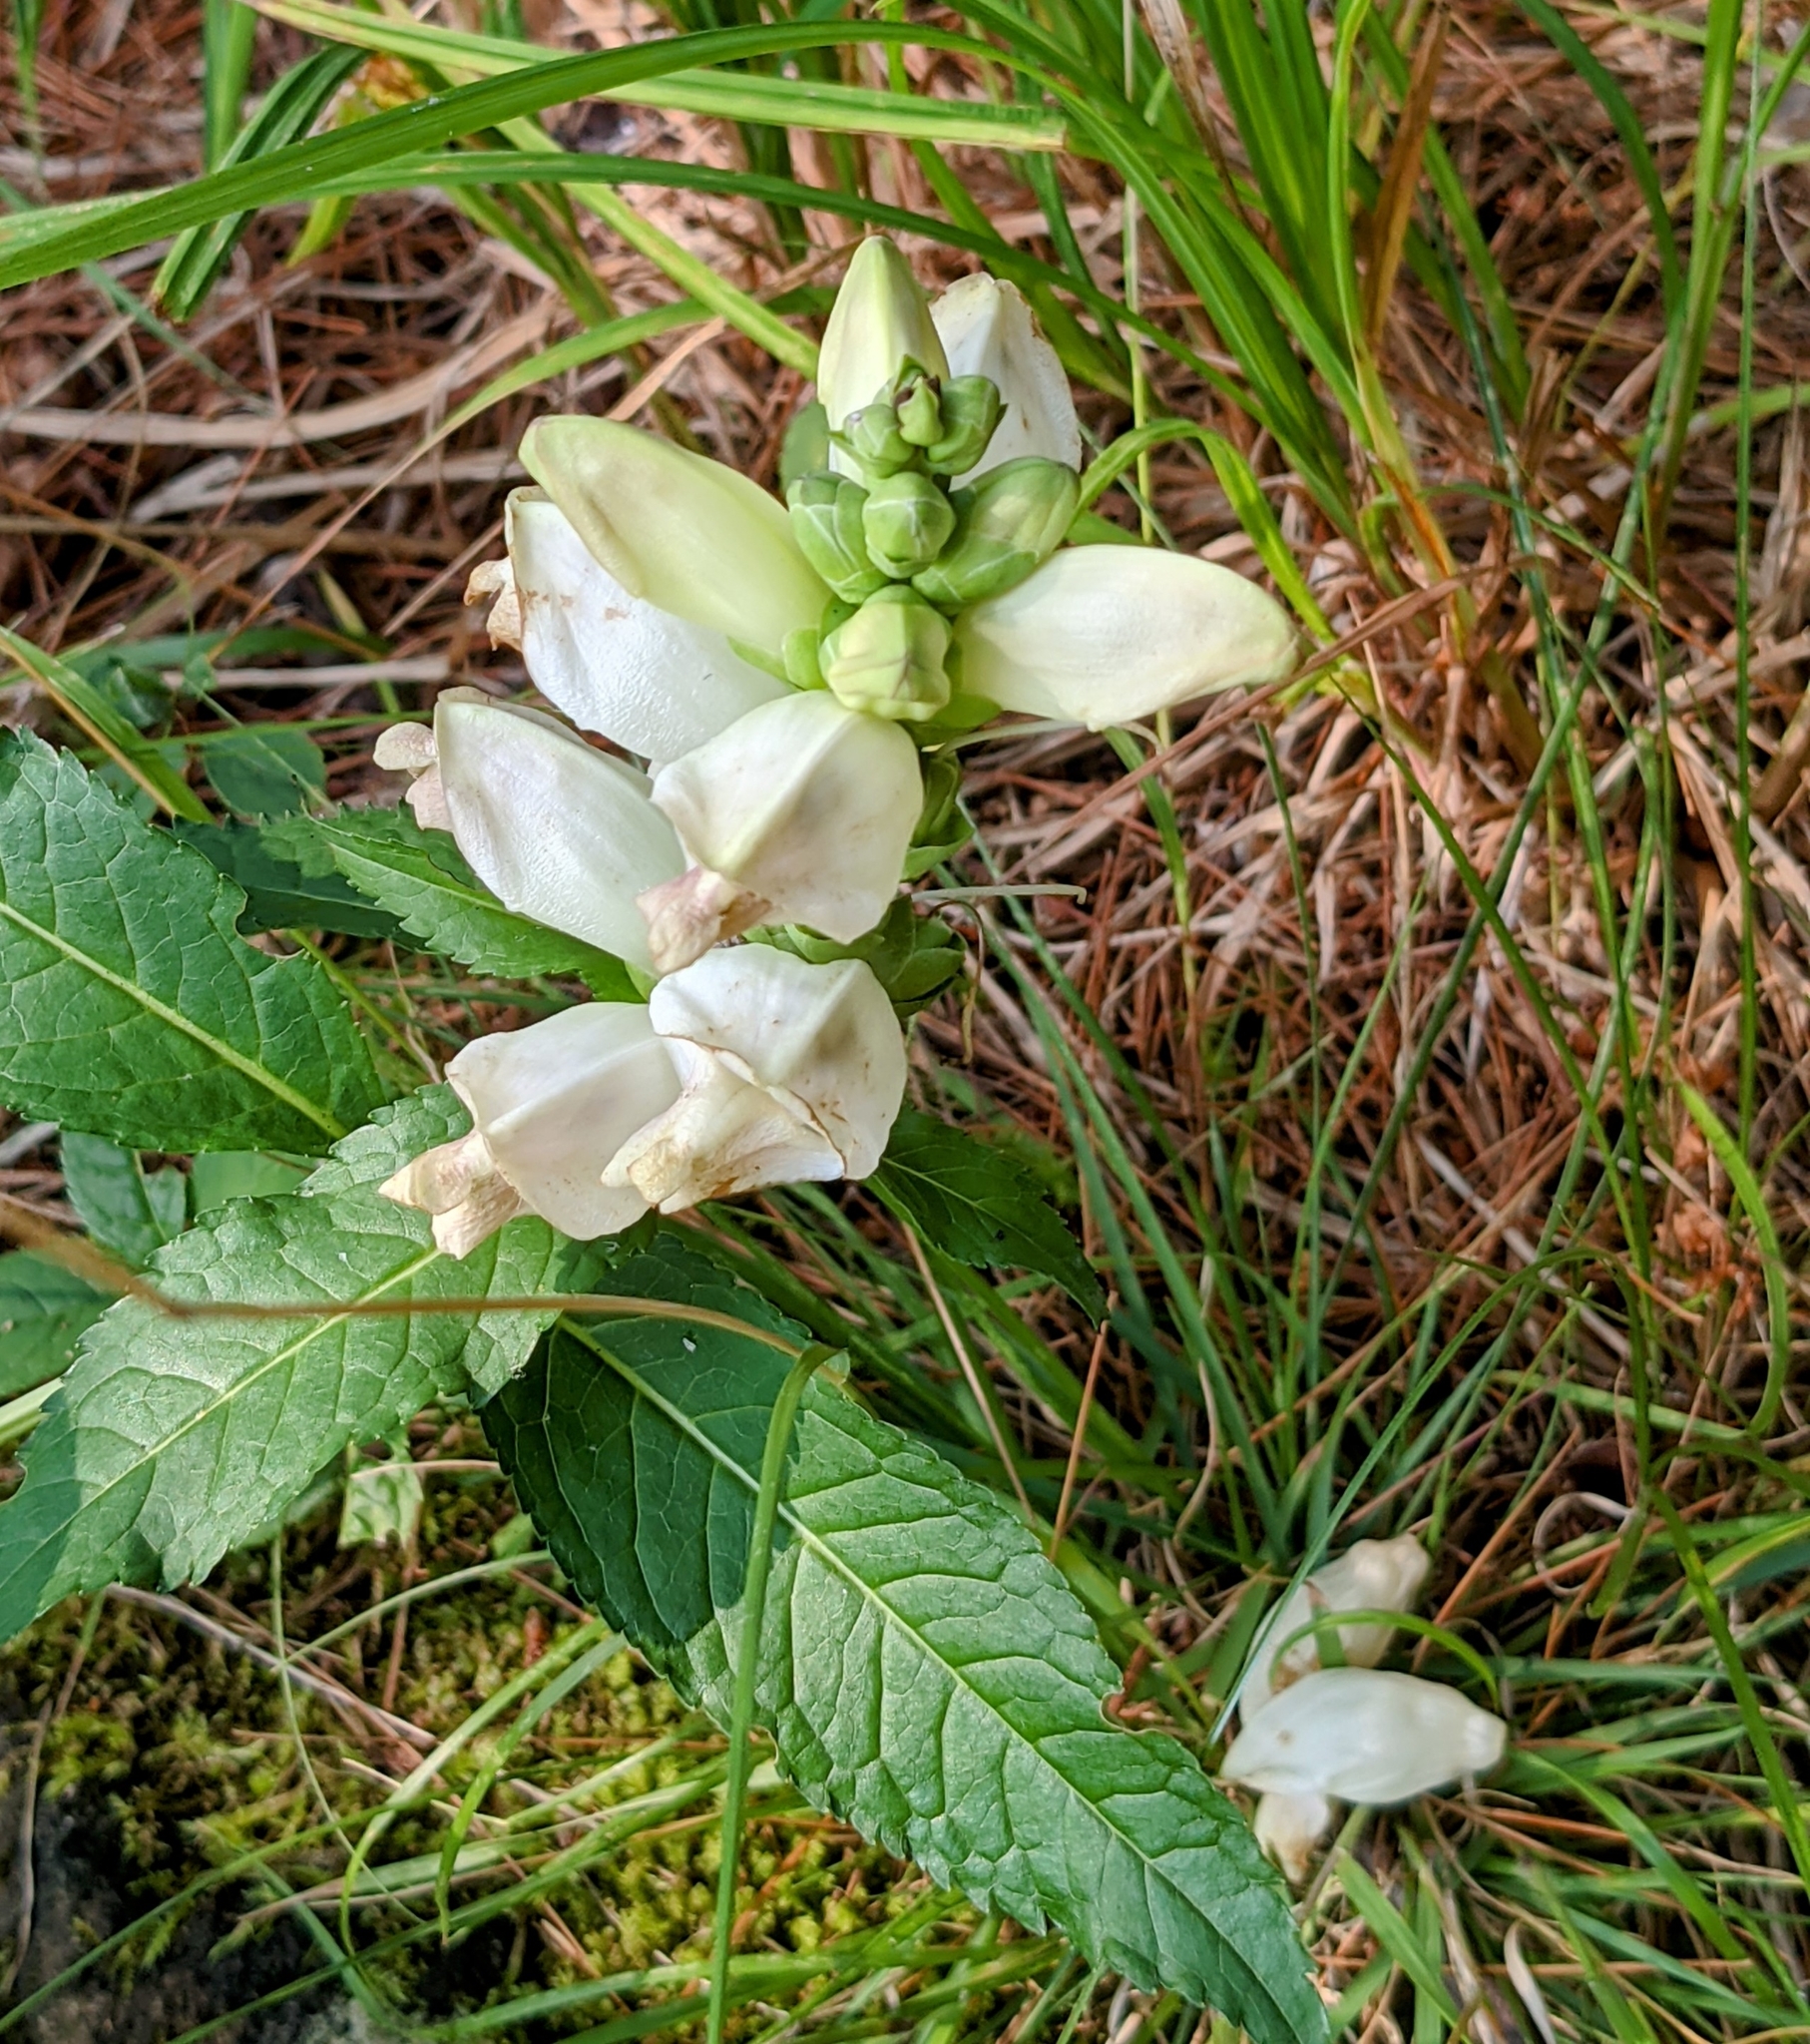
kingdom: Plantae
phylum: Tracheophyta
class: Magnoliopsida
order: Lamiales
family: Plantaginaceae
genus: Chelone
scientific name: Chelone glabra
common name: Snakehead
